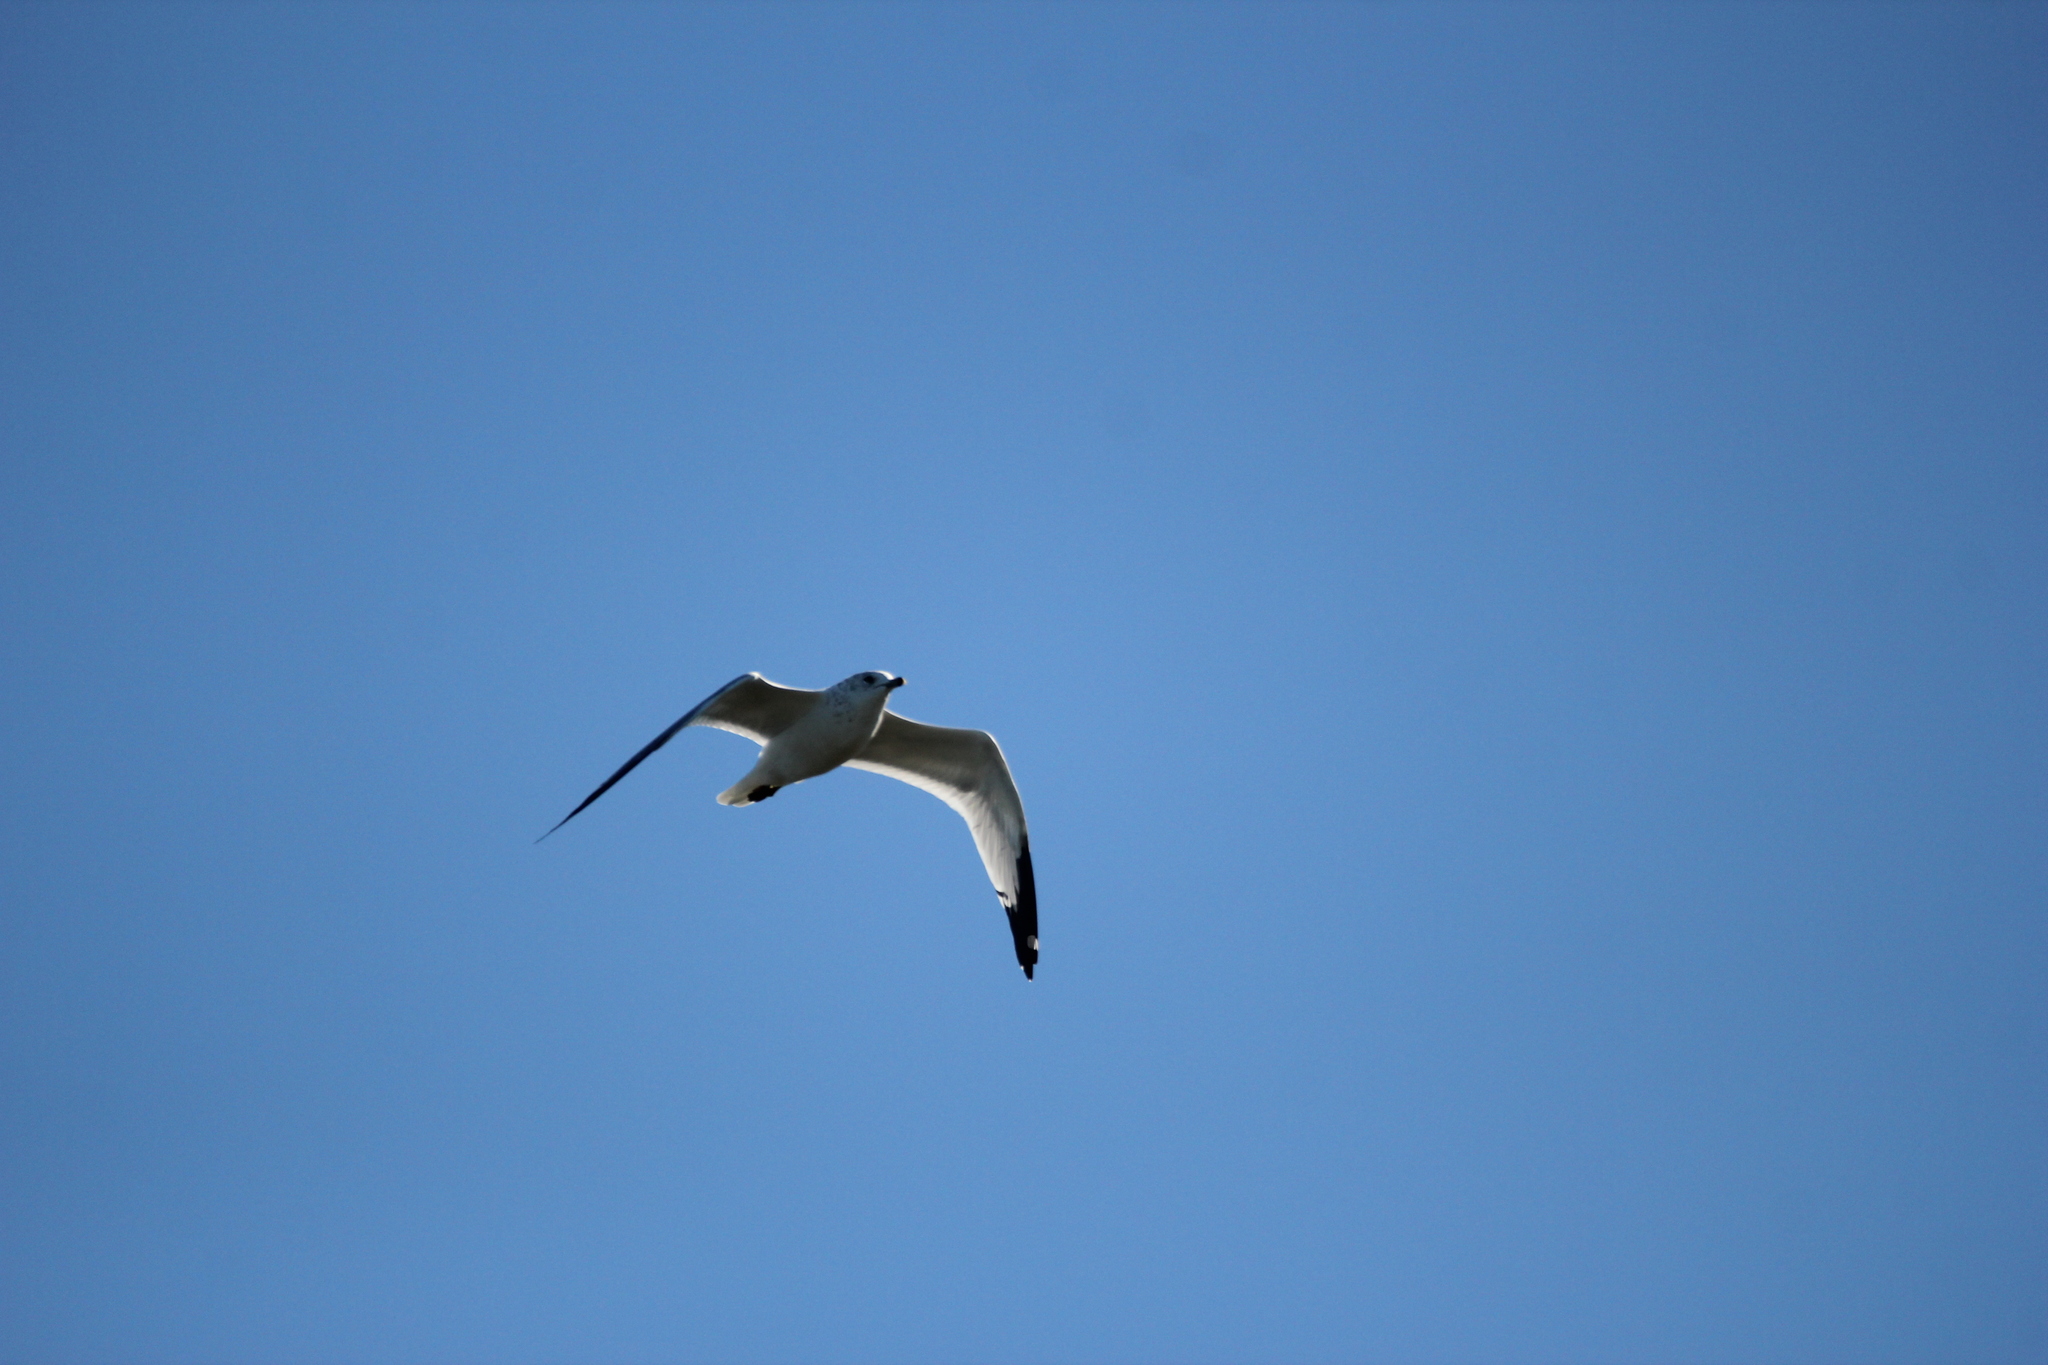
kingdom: Animalia
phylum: Chordata
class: Aves
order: Charadriiformes
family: Laridae
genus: Larus
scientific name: Larus delawarensis
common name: Ring-billed gull
